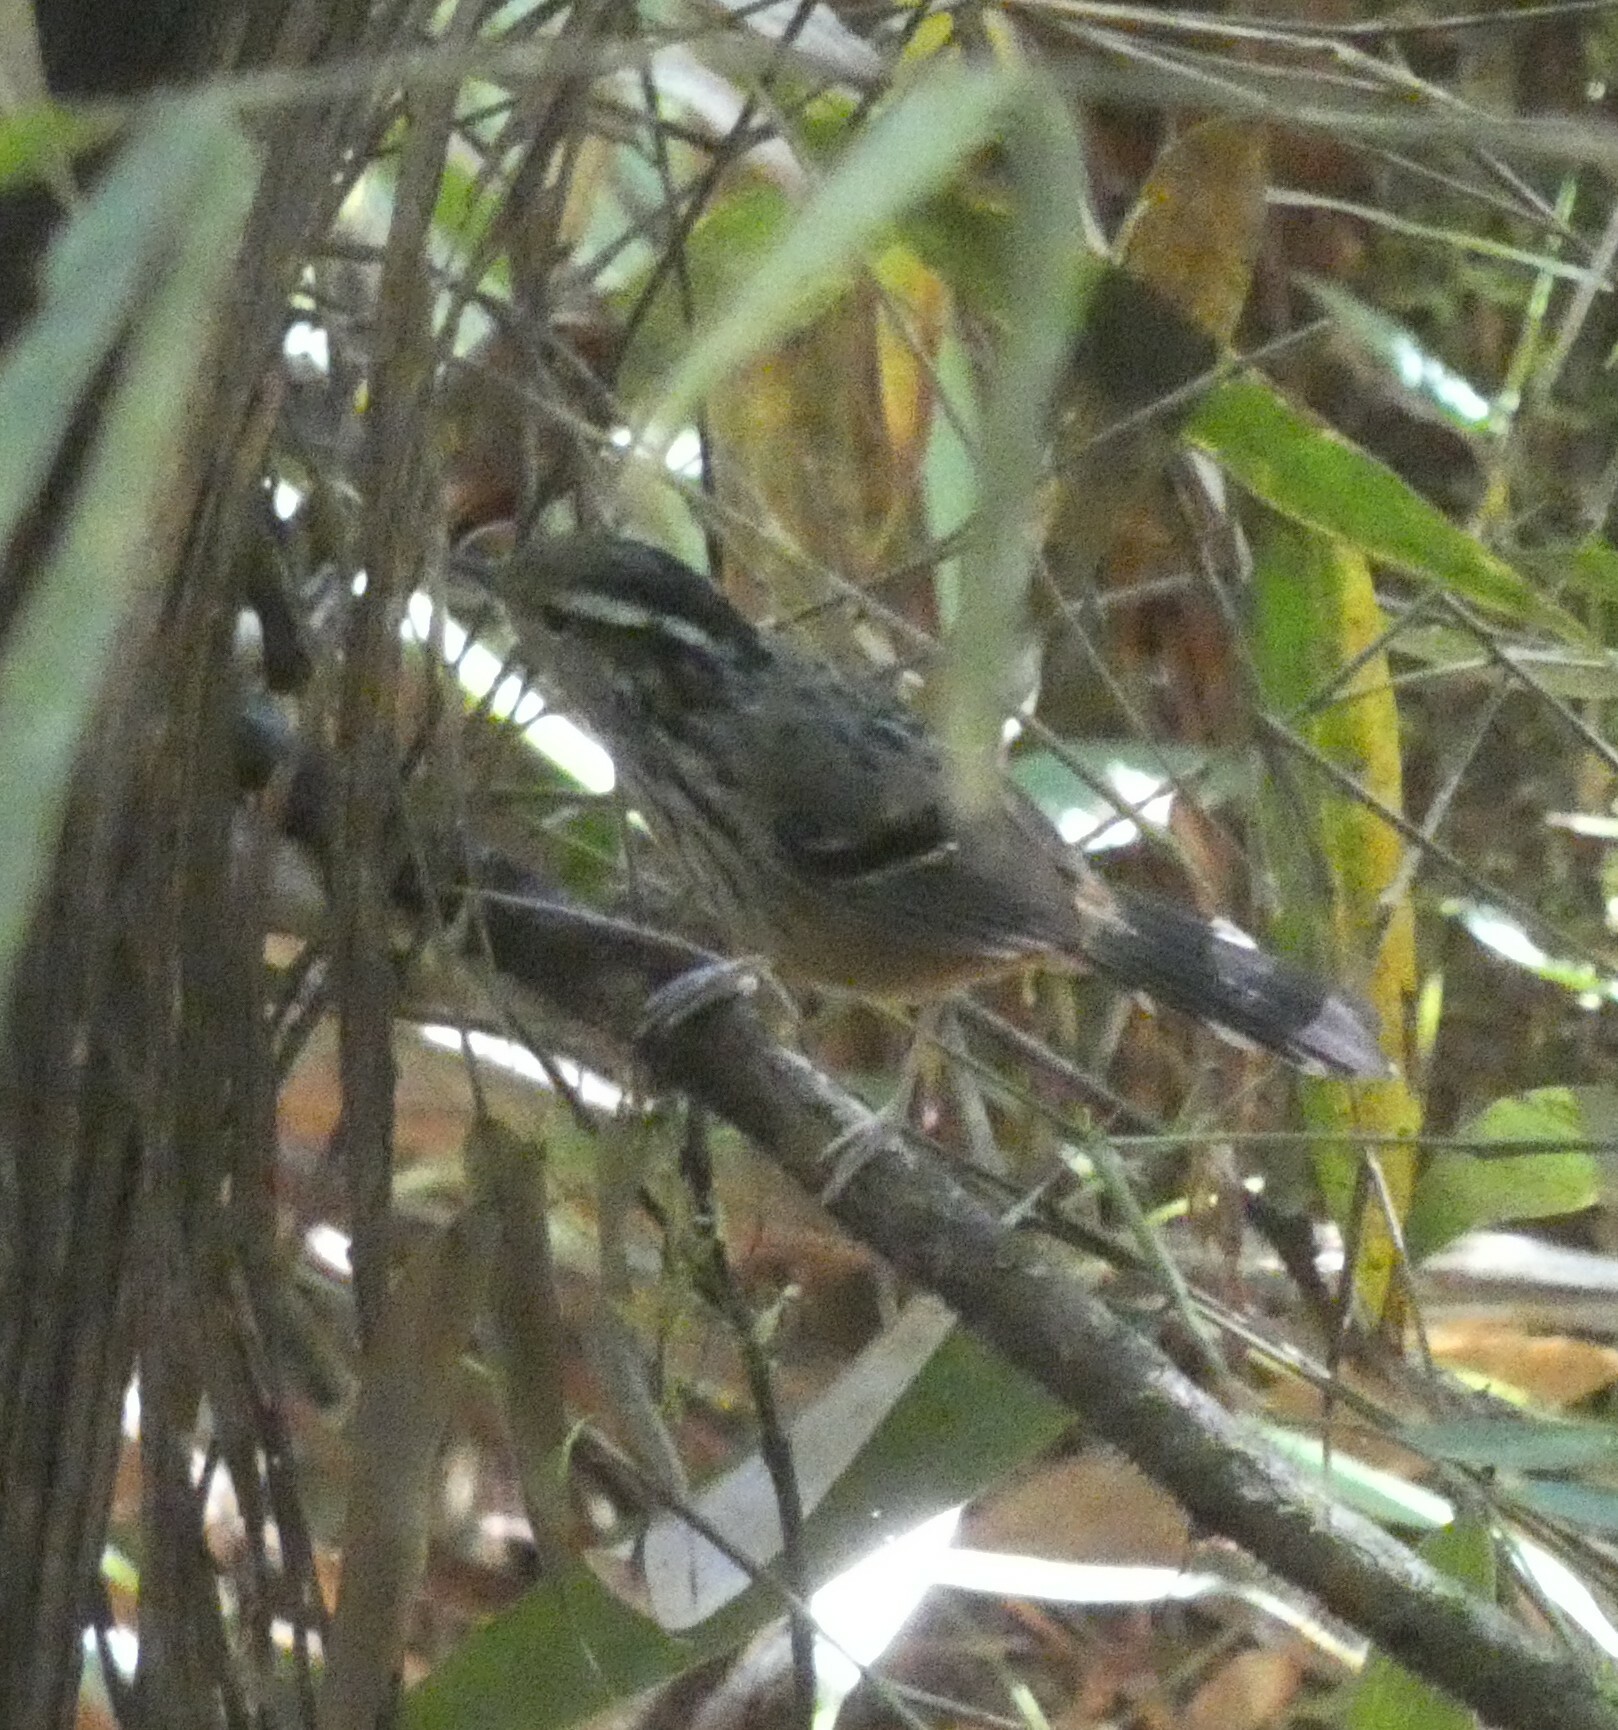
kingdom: Animalia
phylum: Chordata
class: Aves
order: Passeriformes
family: Thamnophilidae
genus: Drymophila
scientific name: Drymophila ochropyga
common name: Ochre-rumped antbird
